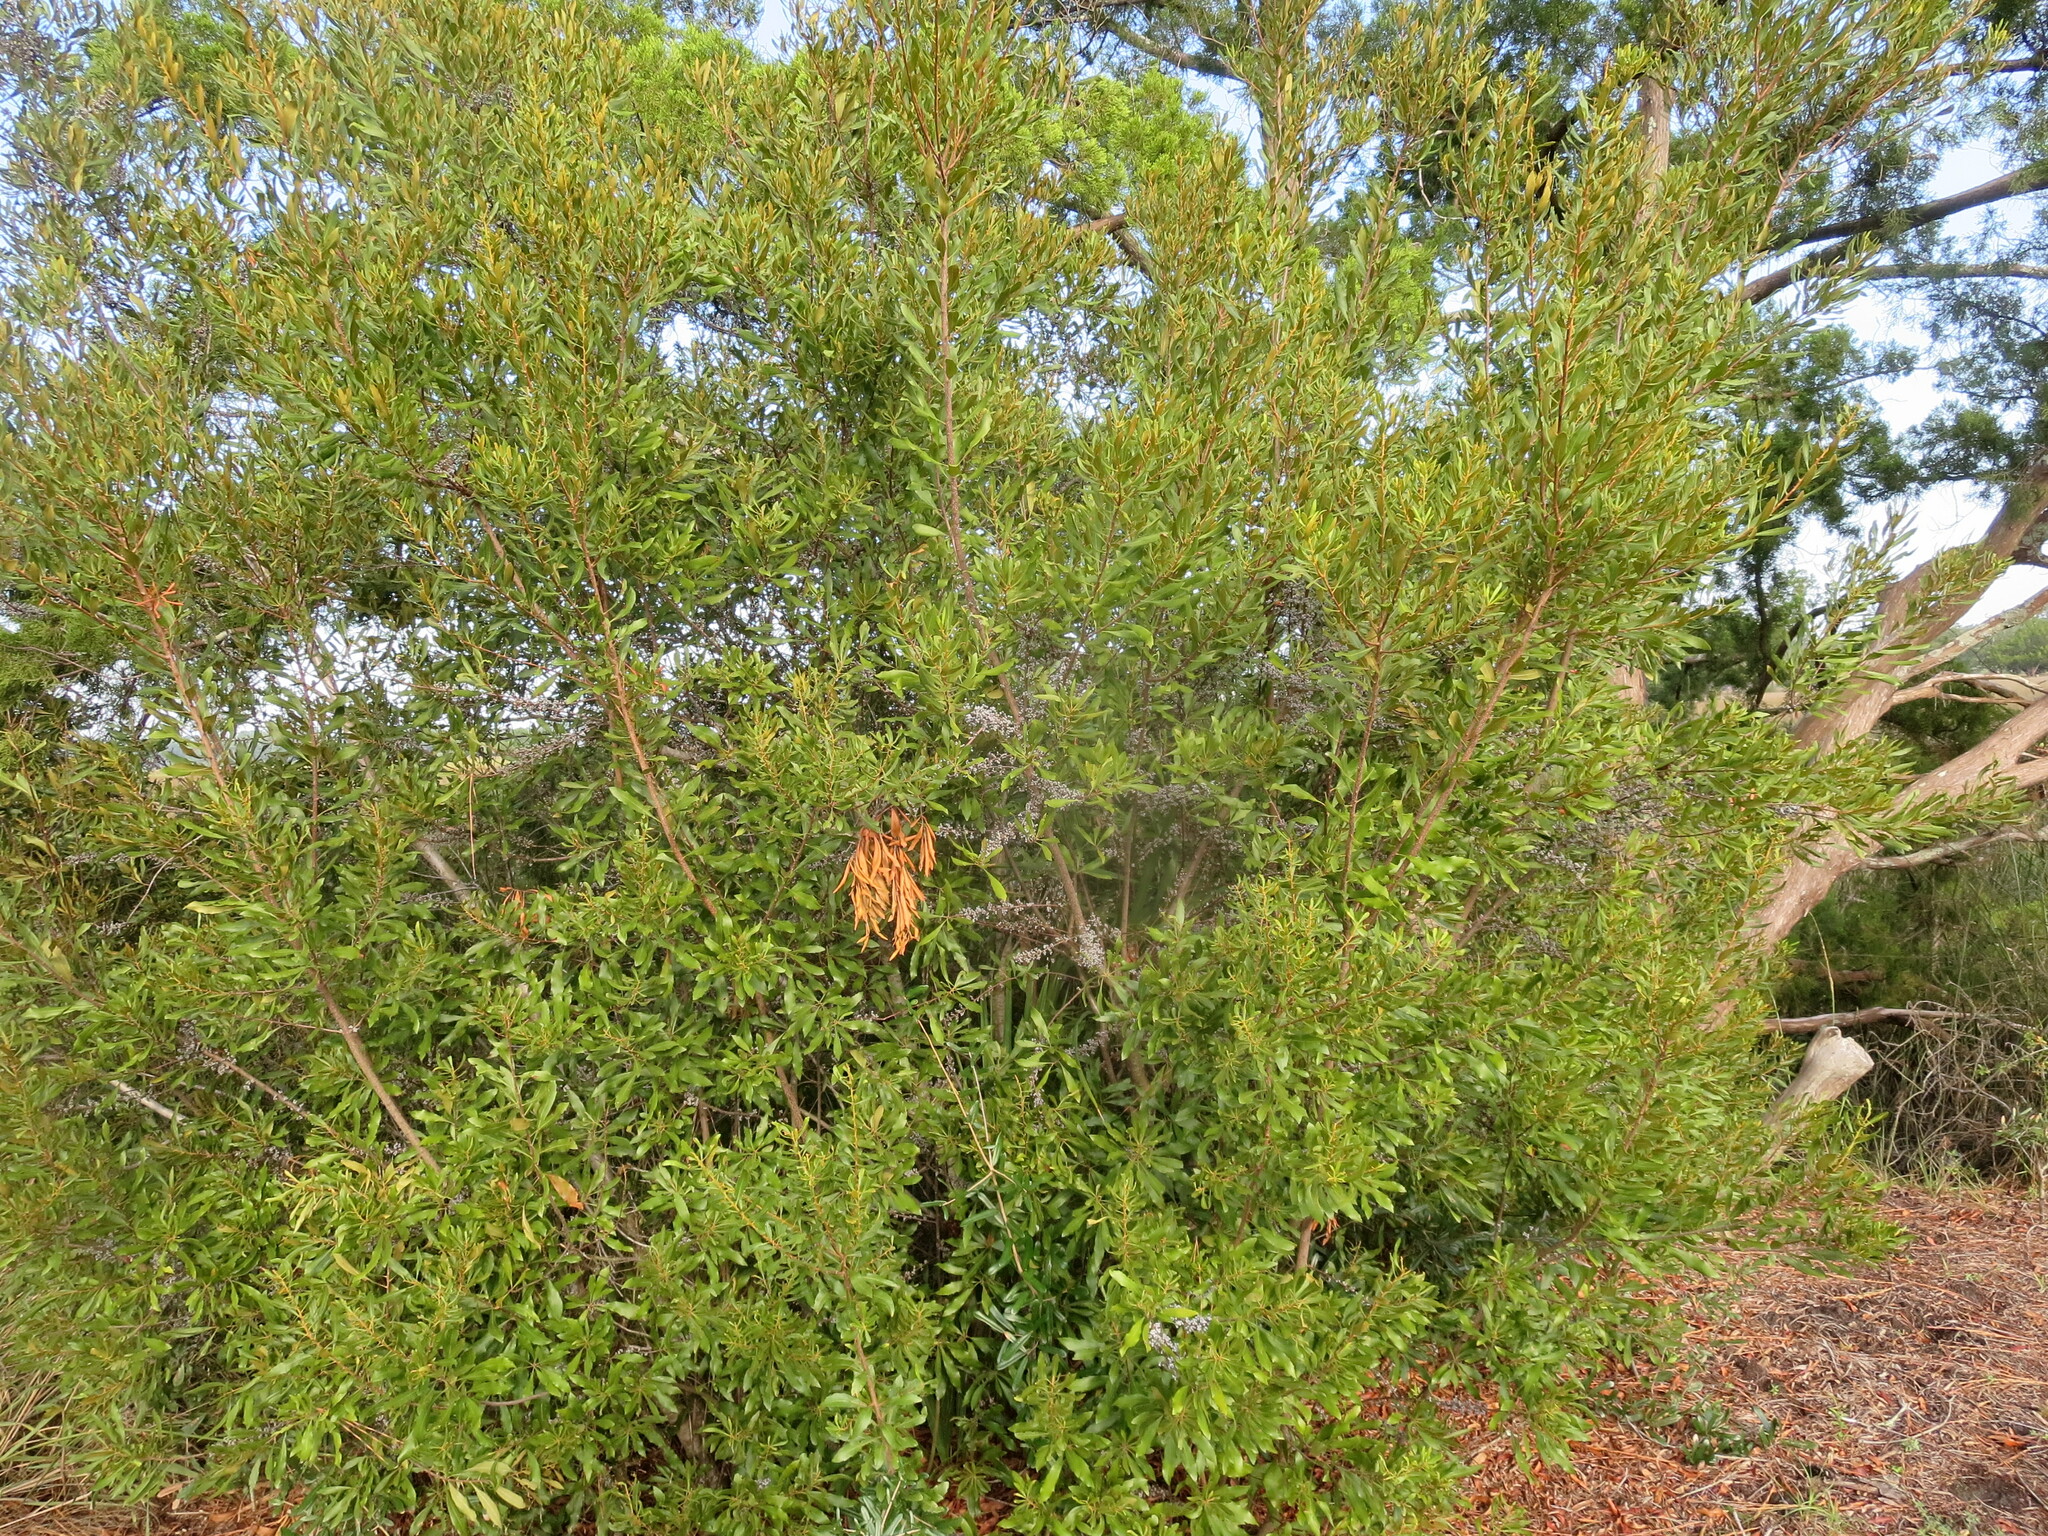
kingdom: Plantae
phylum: Tracheophyta
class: Magnoliopsida
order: Fagales
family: Myricaceae
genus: Morella
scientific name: Morella cerifera
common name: Wax myrtle
